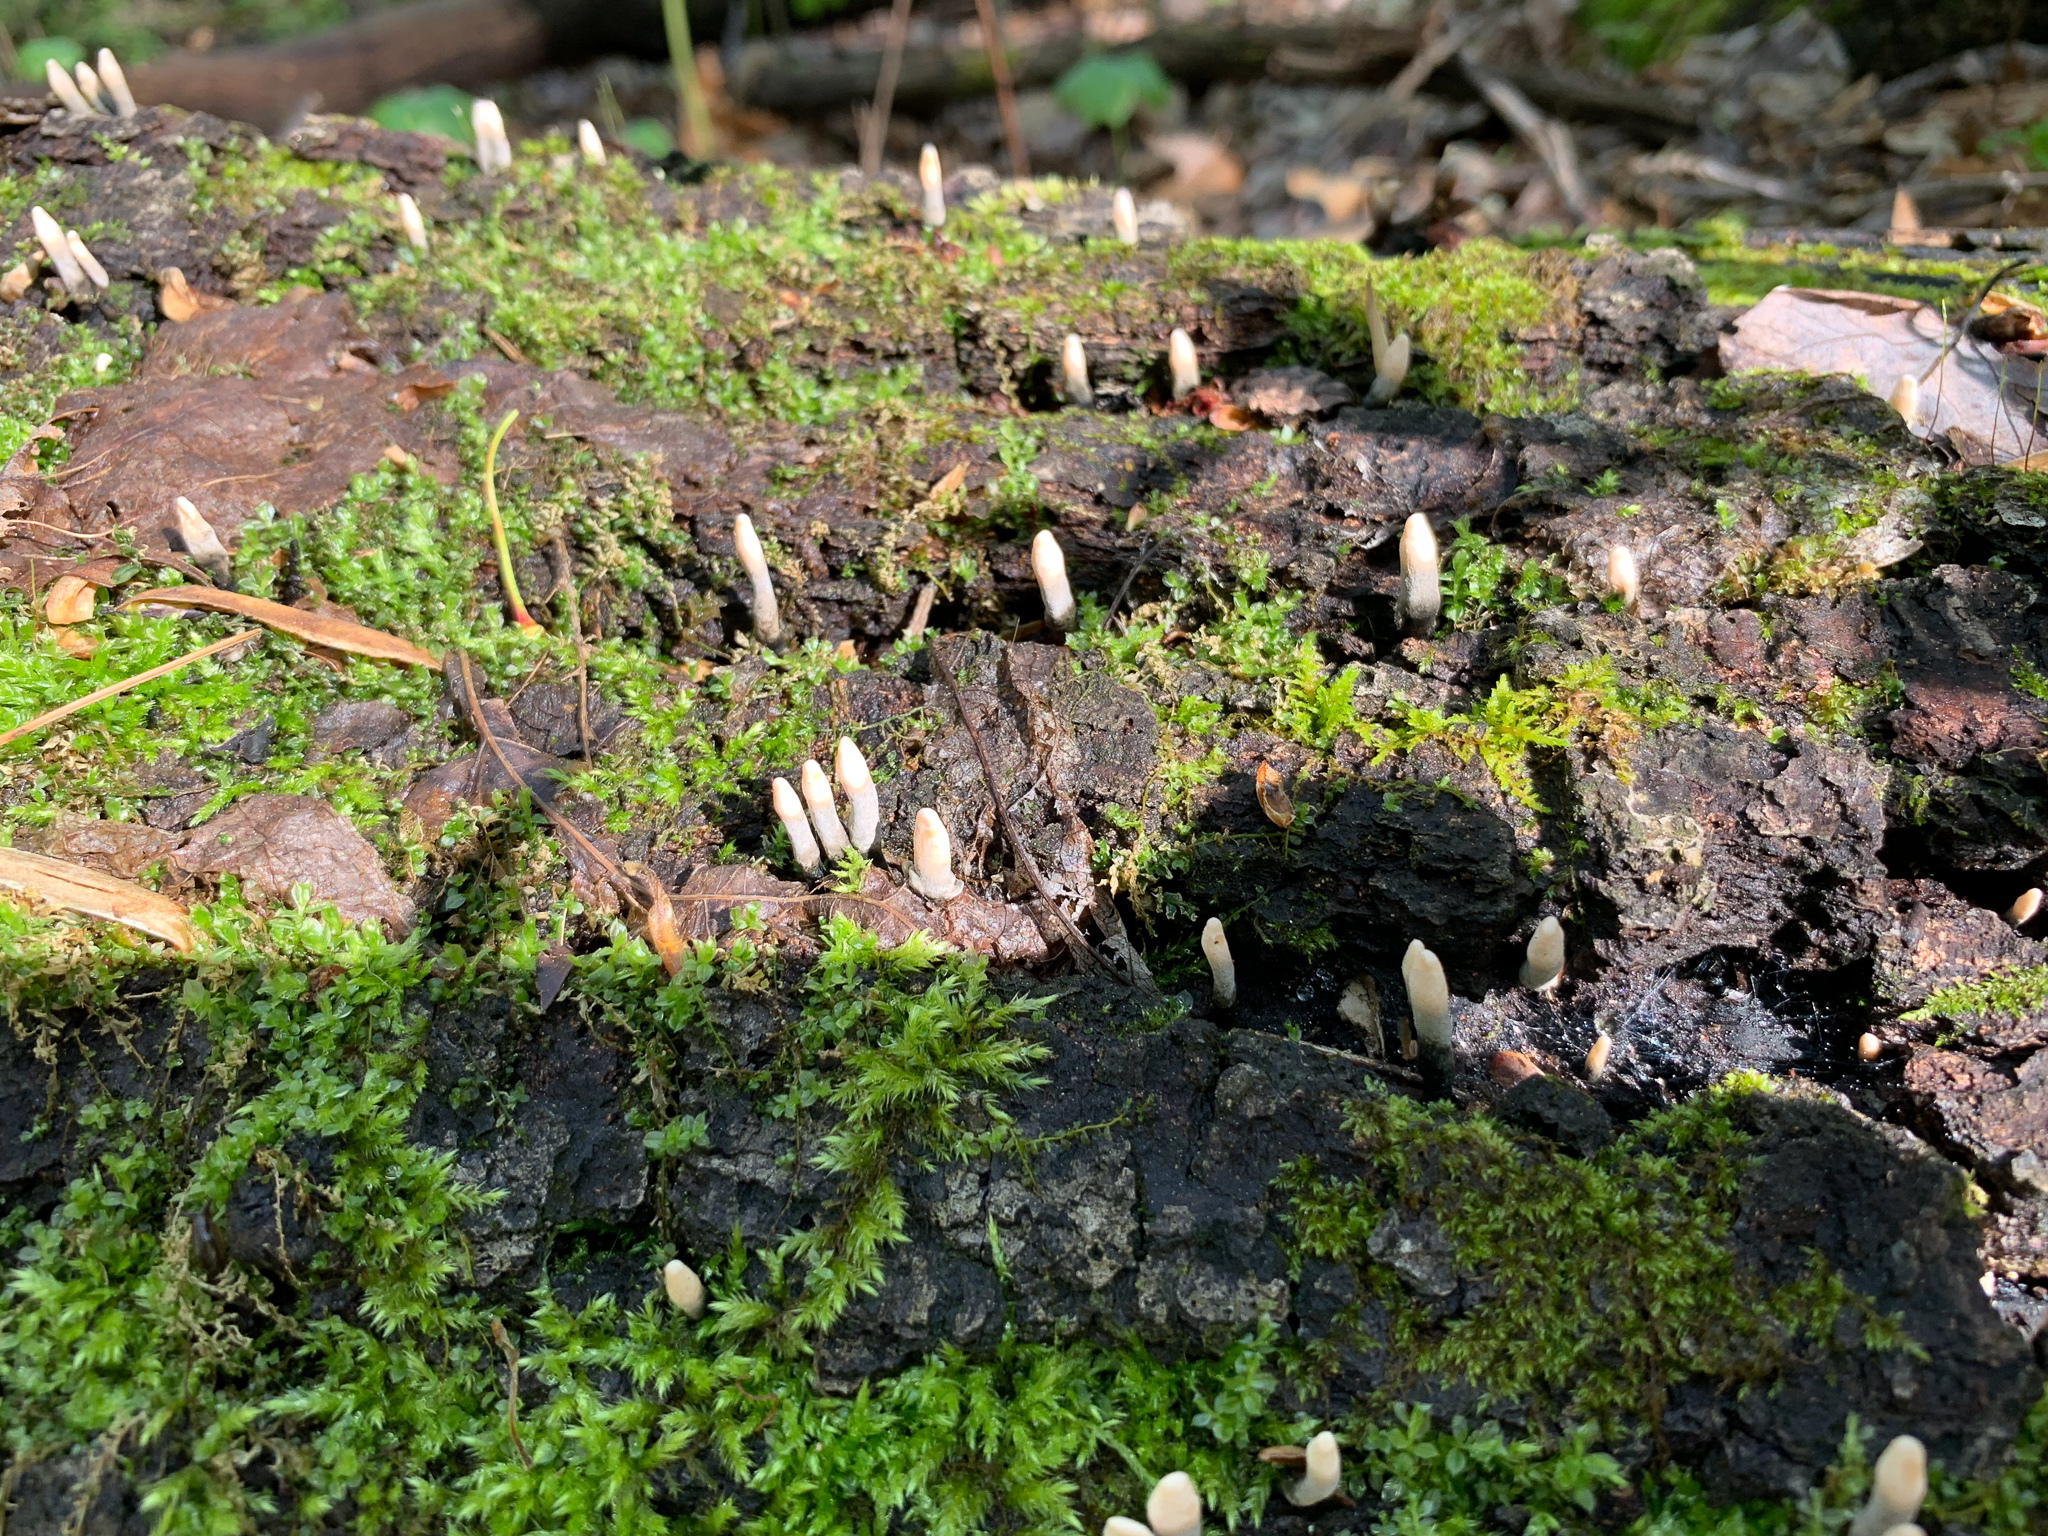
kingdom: Fungi
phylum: Ascomycota
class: Sordariomycetes
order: Xylariales
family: Xylariaceae
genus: Xylaria
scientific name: Xylaria hypoxylon
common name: Candle-snuff fungus
